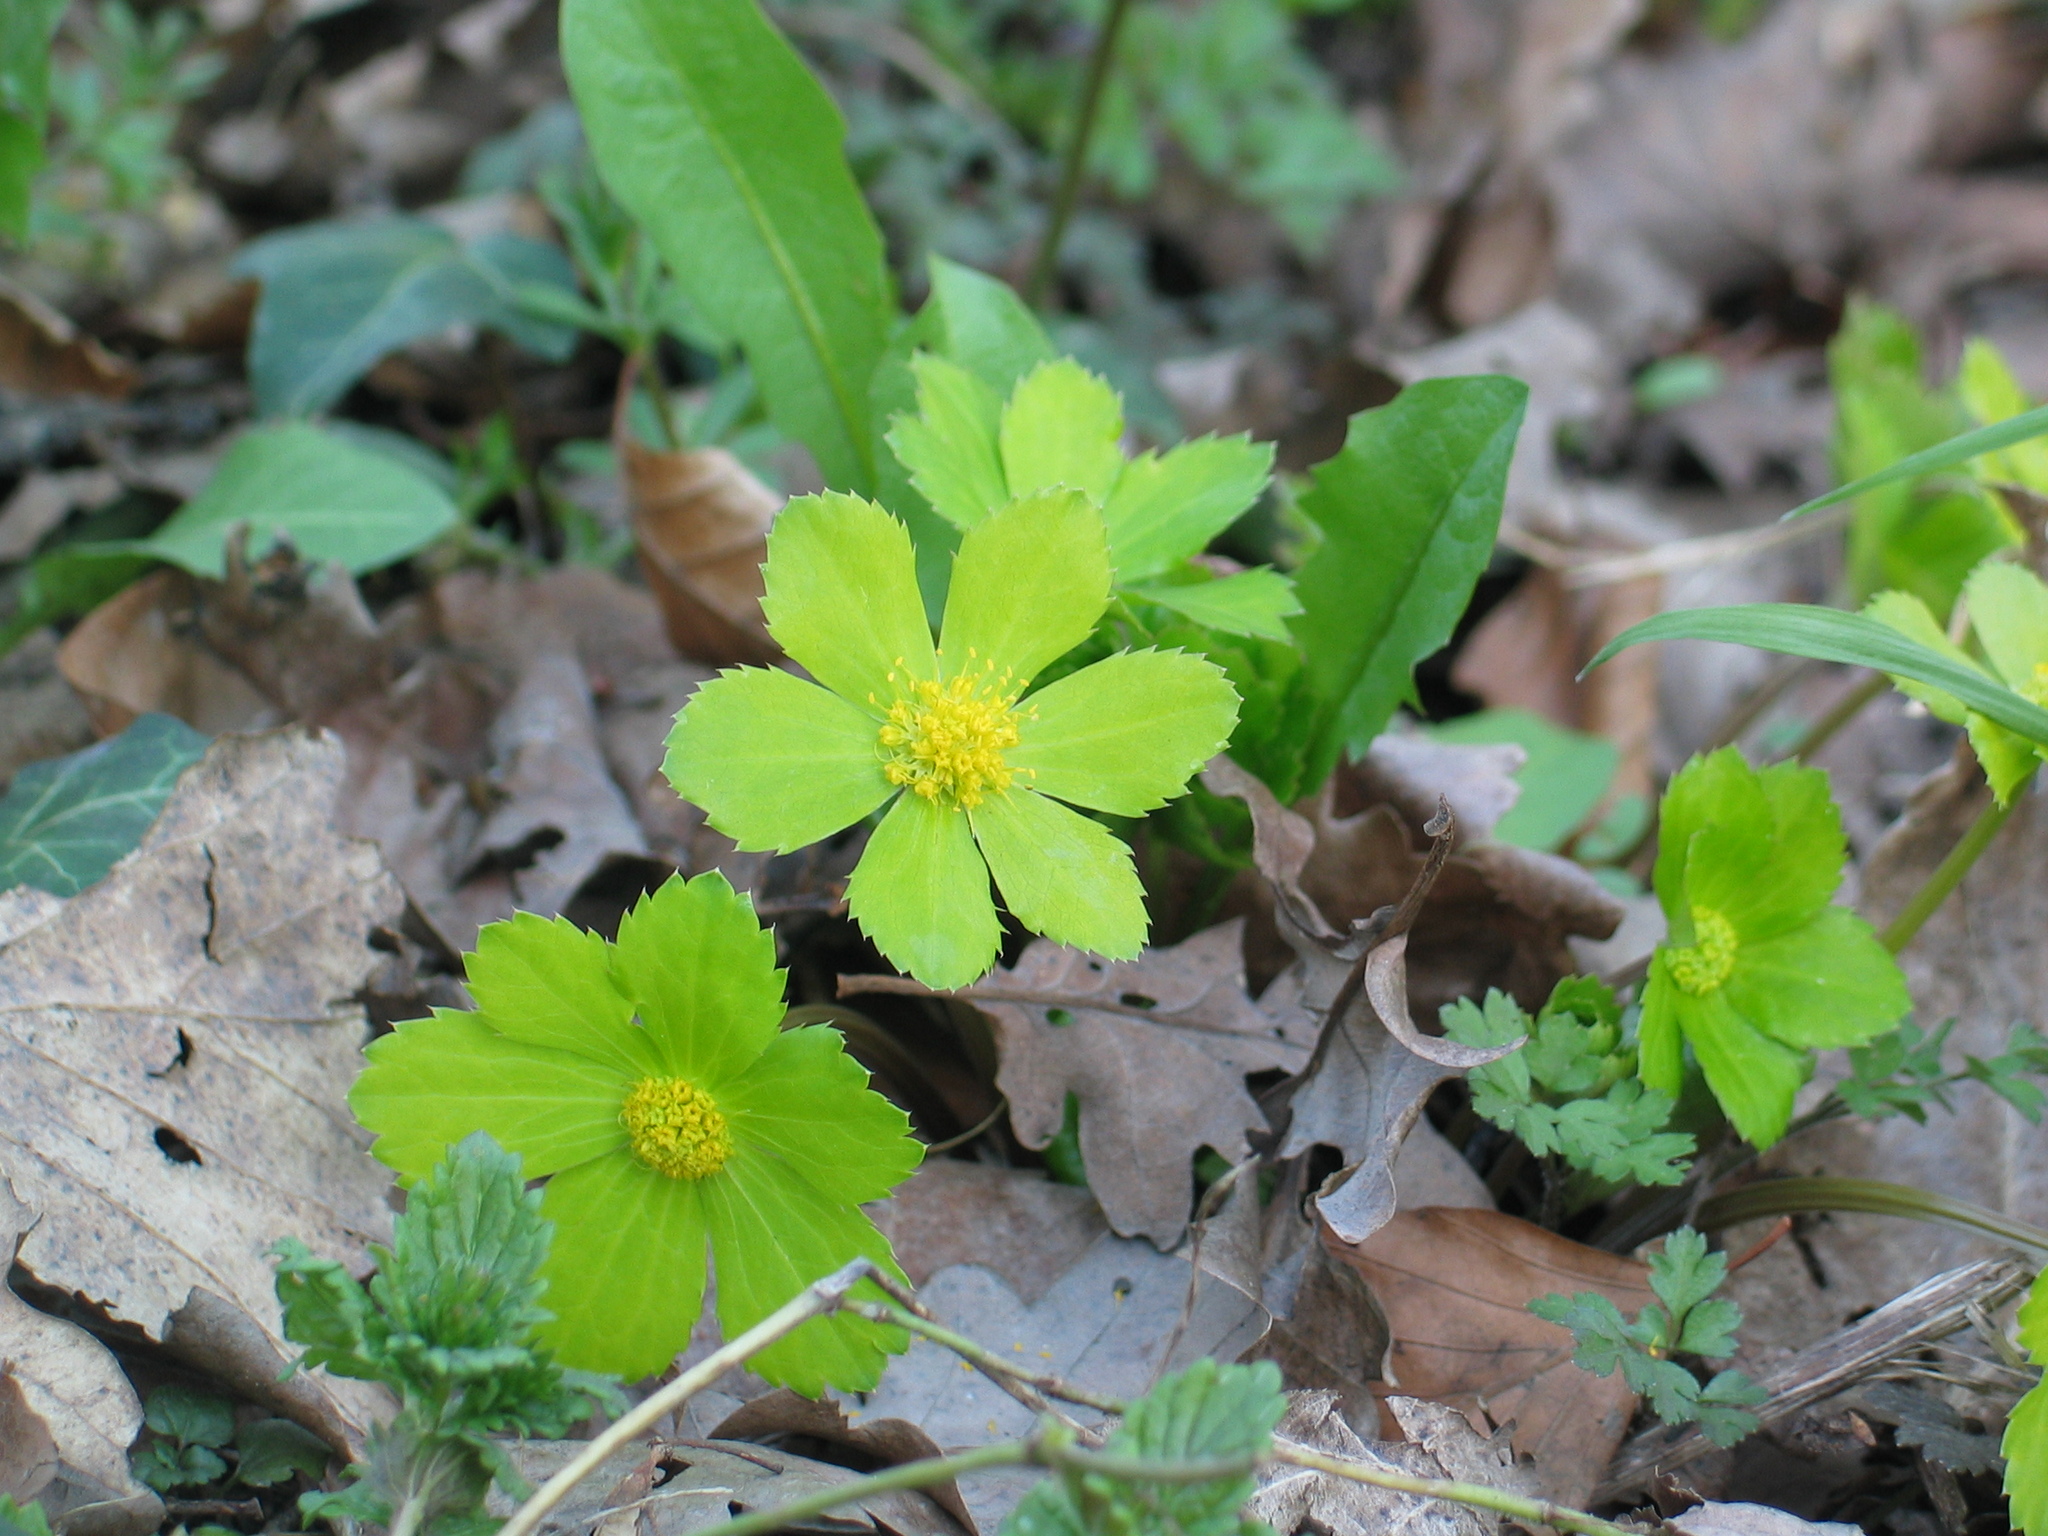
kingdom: Plantae
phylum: Tracheophyta
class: Magnoliopsida
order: Apiales
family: Apiaceae
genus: Sanicula
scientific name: Sanicula epipactis
